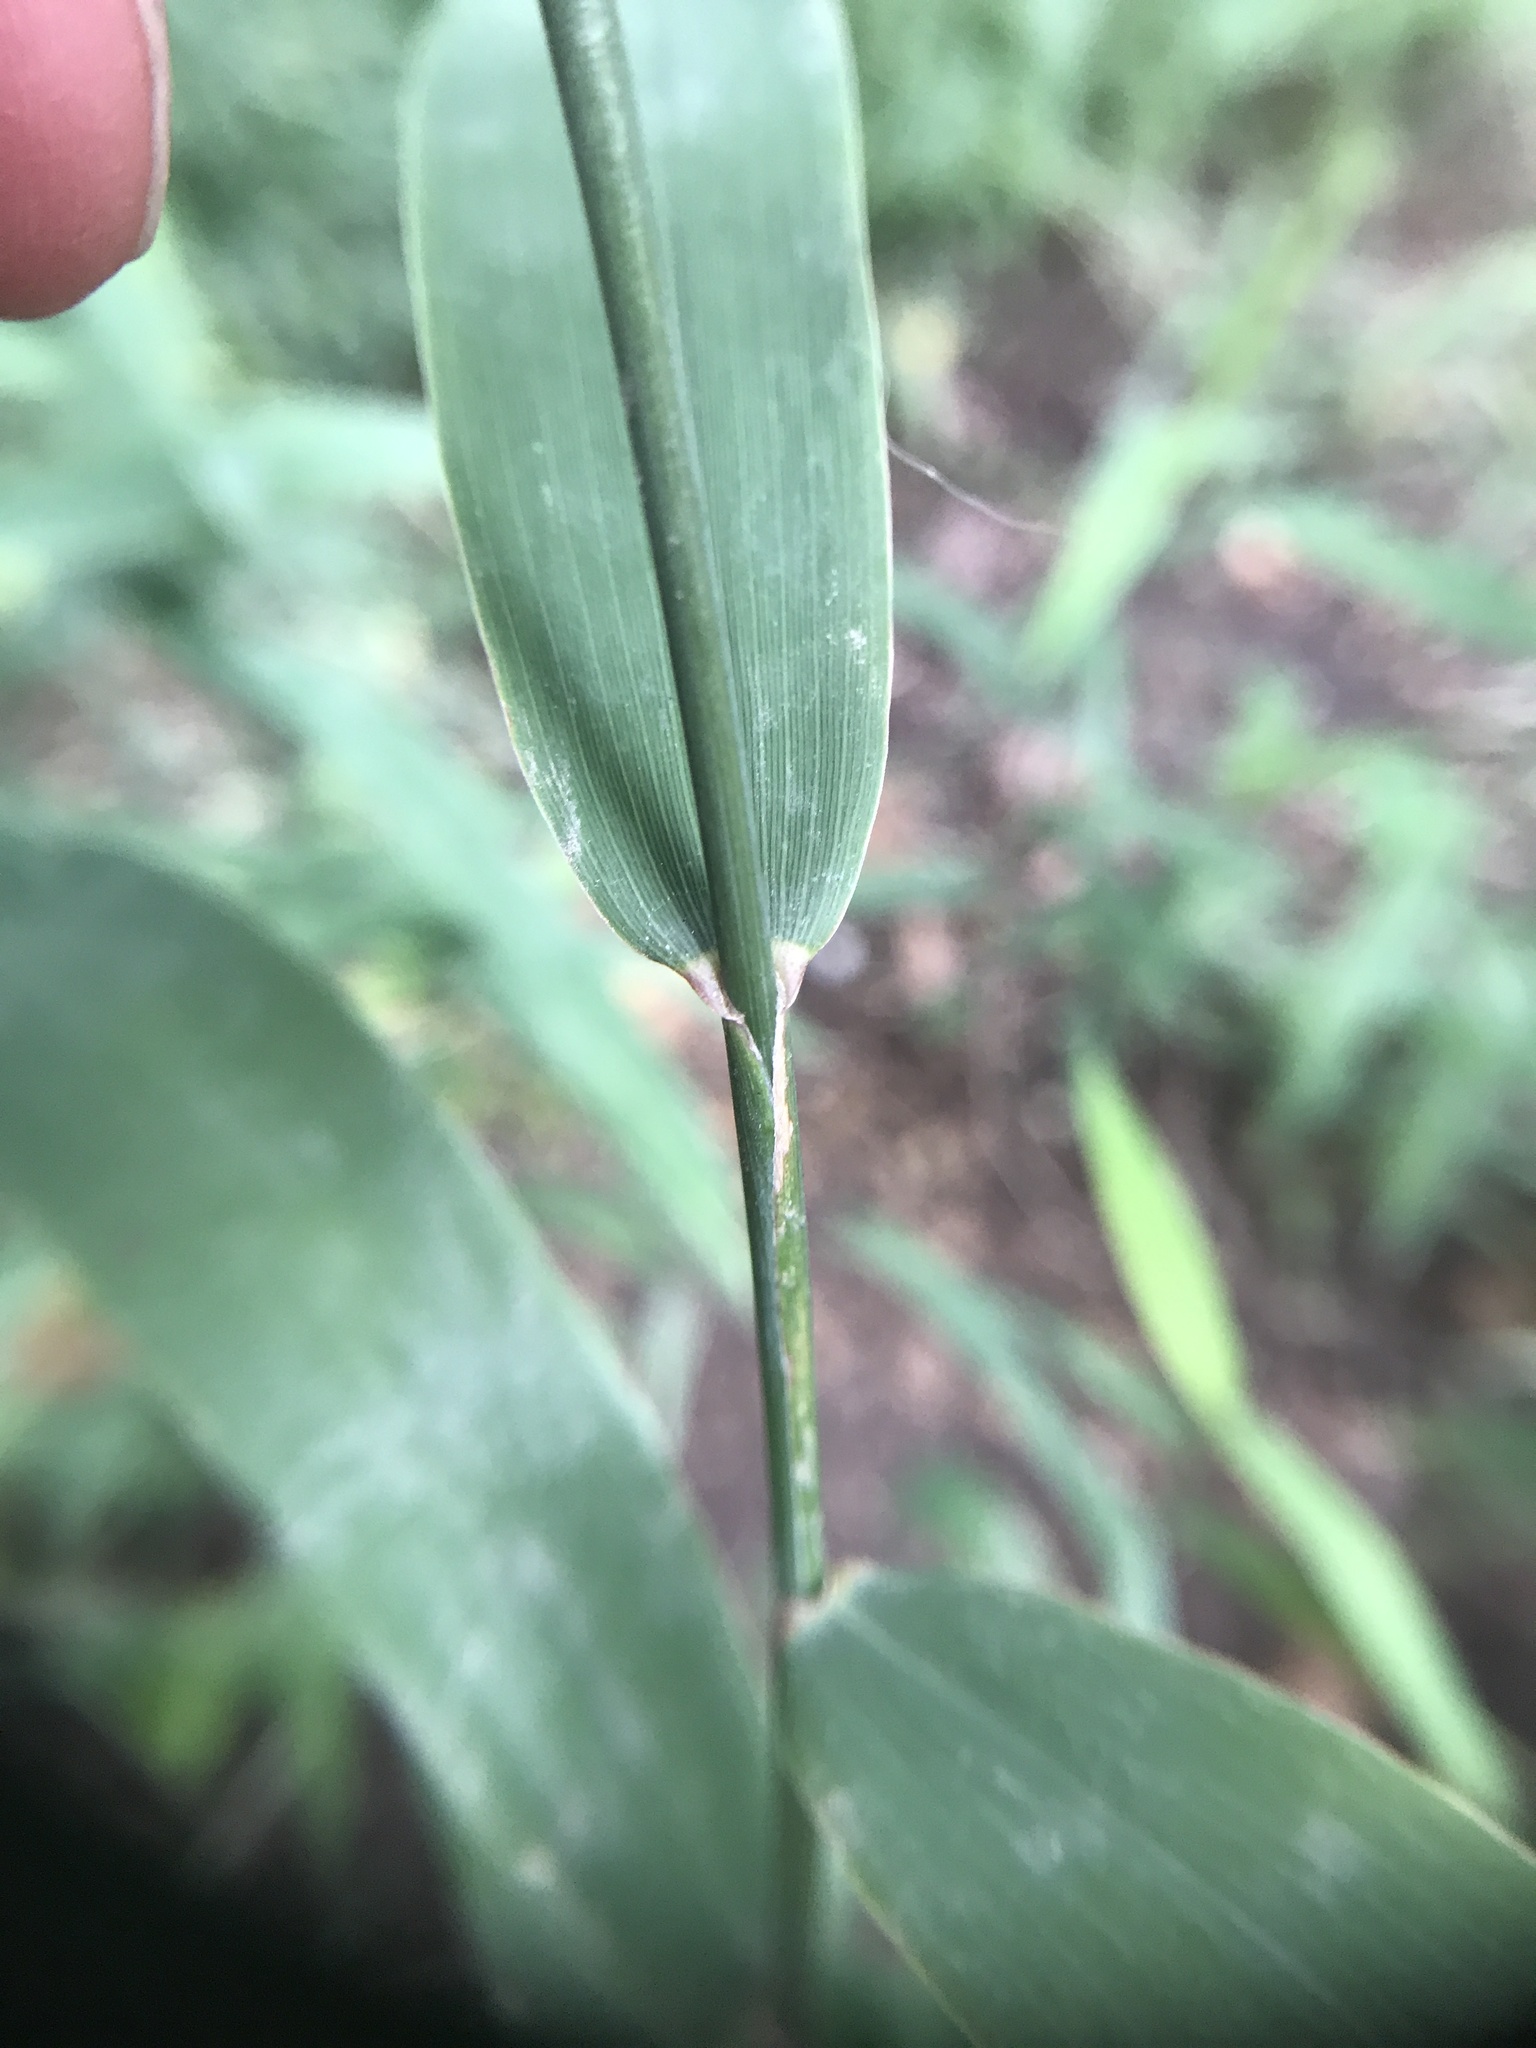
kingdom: Plantae
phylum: Tracheophyta
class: Liliopsida
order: Poales
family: Poaceae
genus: Chasmanthium
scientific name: Chasmanthium latifolium
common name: Broad-leaved chasmanthium
